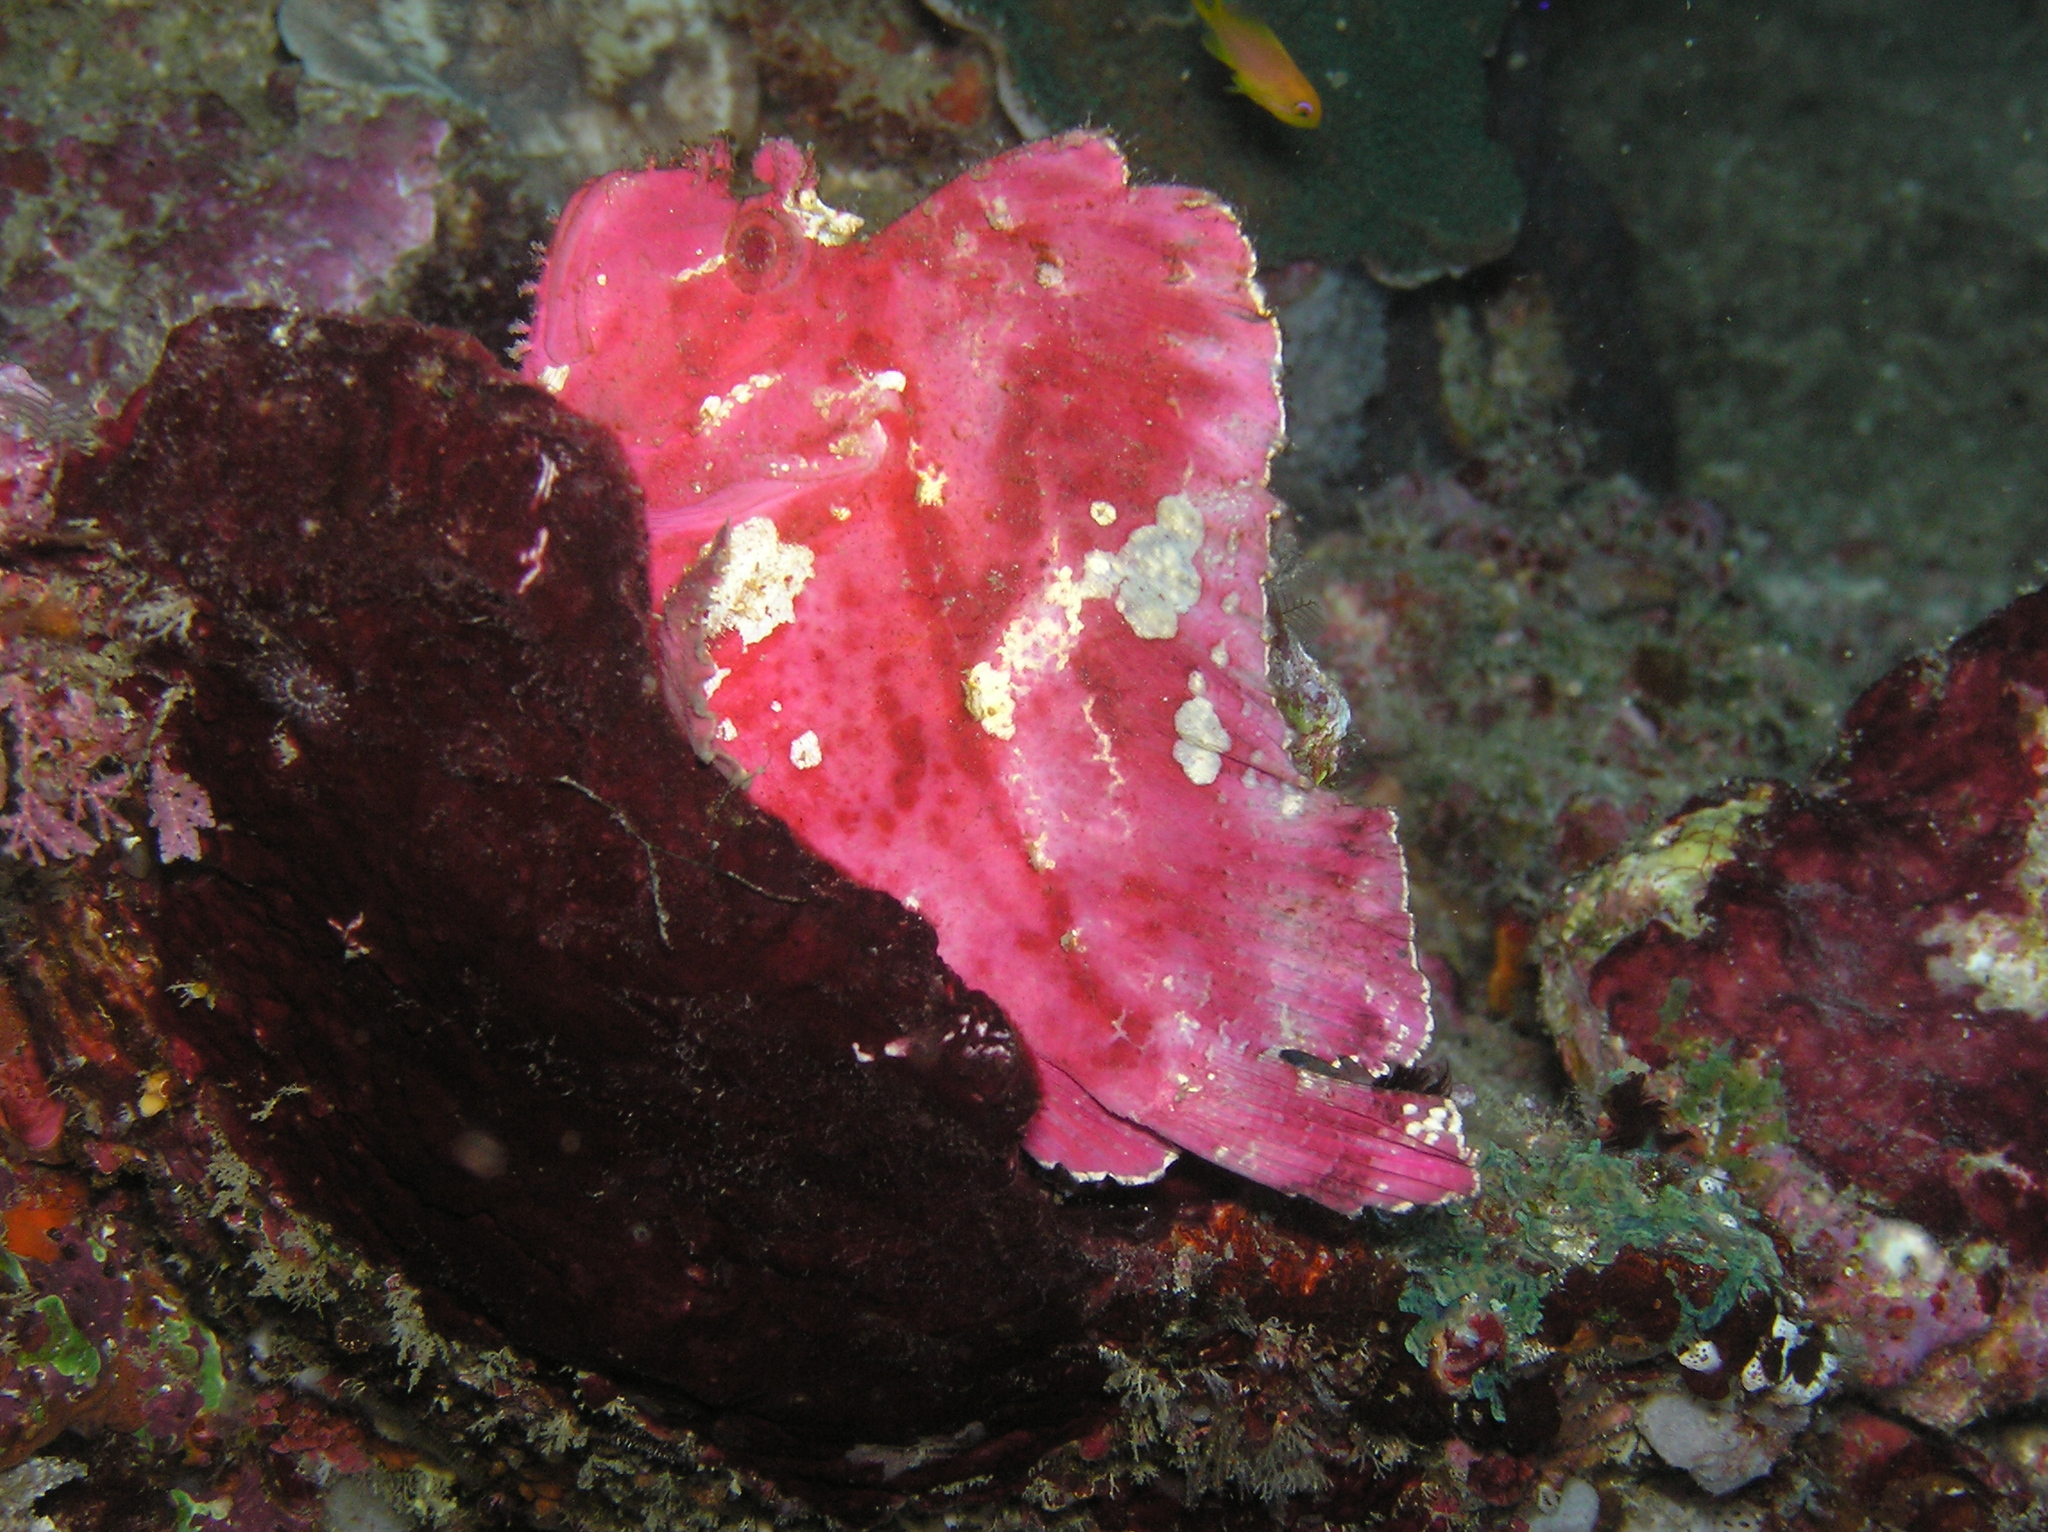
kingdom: Animalia
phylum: Chordata
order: Scorpaeniformes
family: Scorpaenidae
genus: Taenianotus
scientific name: Taenianotus triacanthus
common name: Leaf scorpionfish
